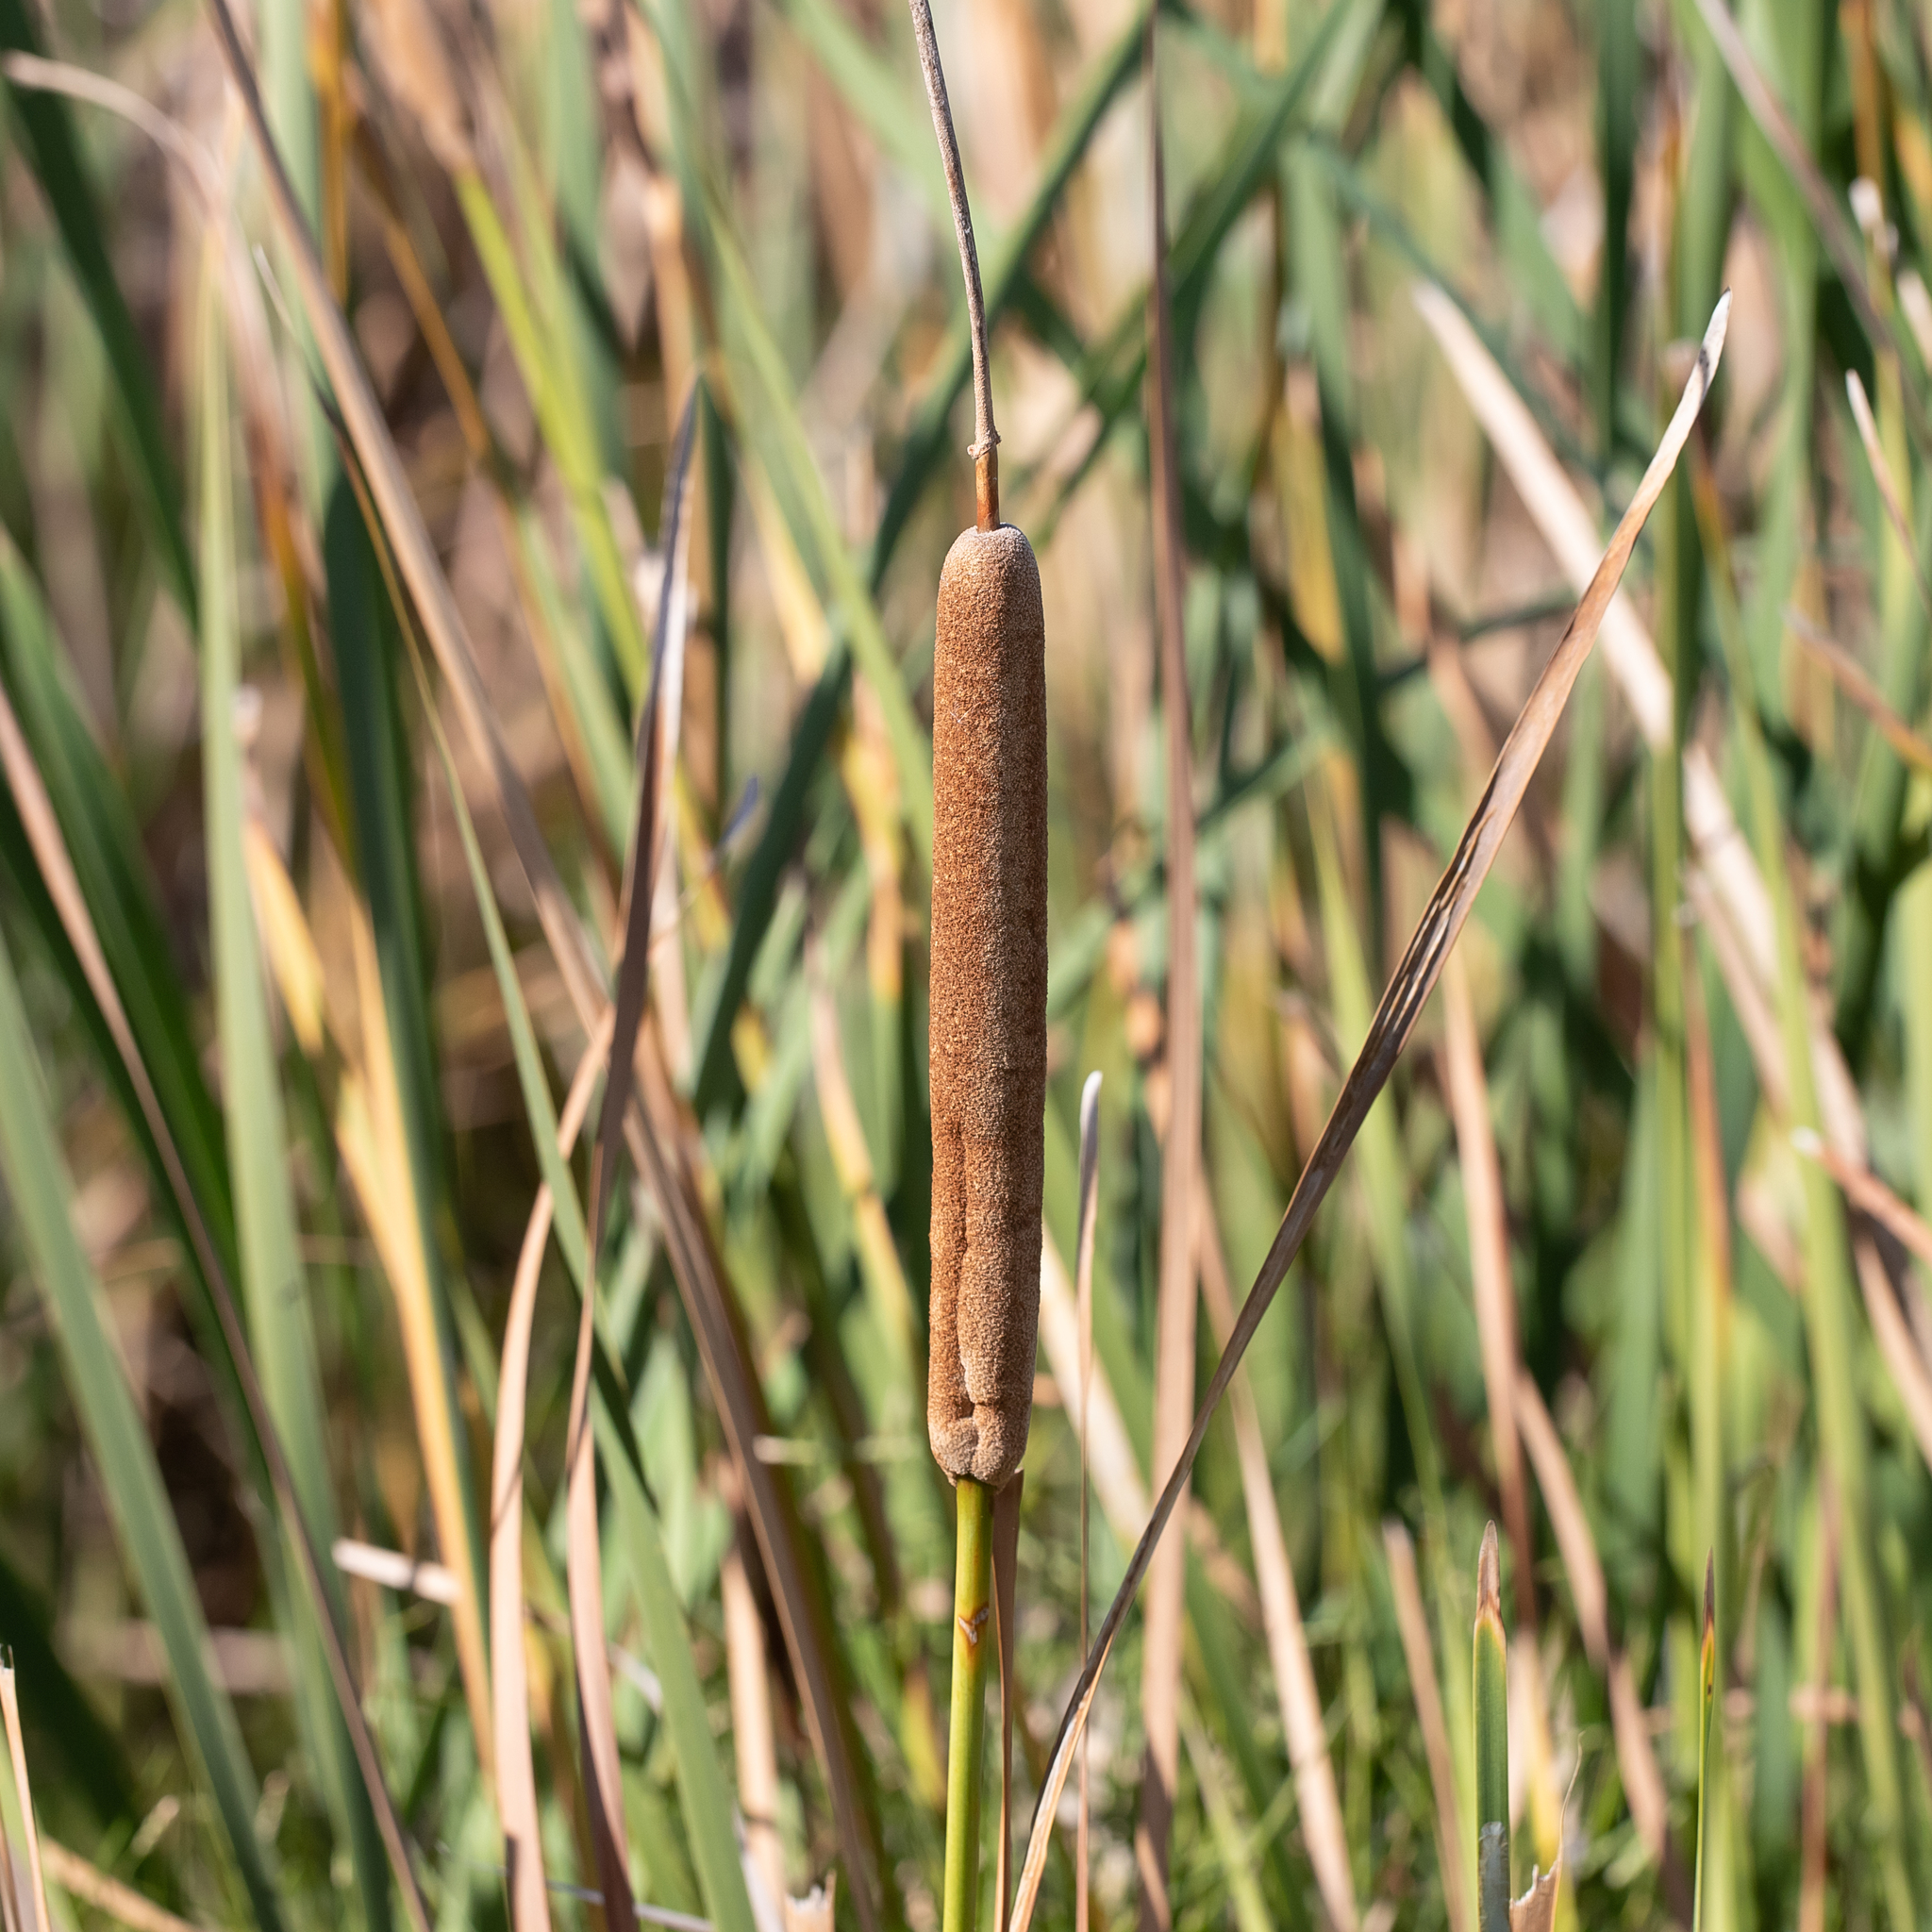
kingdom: Plantae
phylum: Tracheophyta
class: Liliopsida
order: Poales
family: Typhaceae
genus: Typha
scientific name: Typha domingensis
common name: Southern cattail
